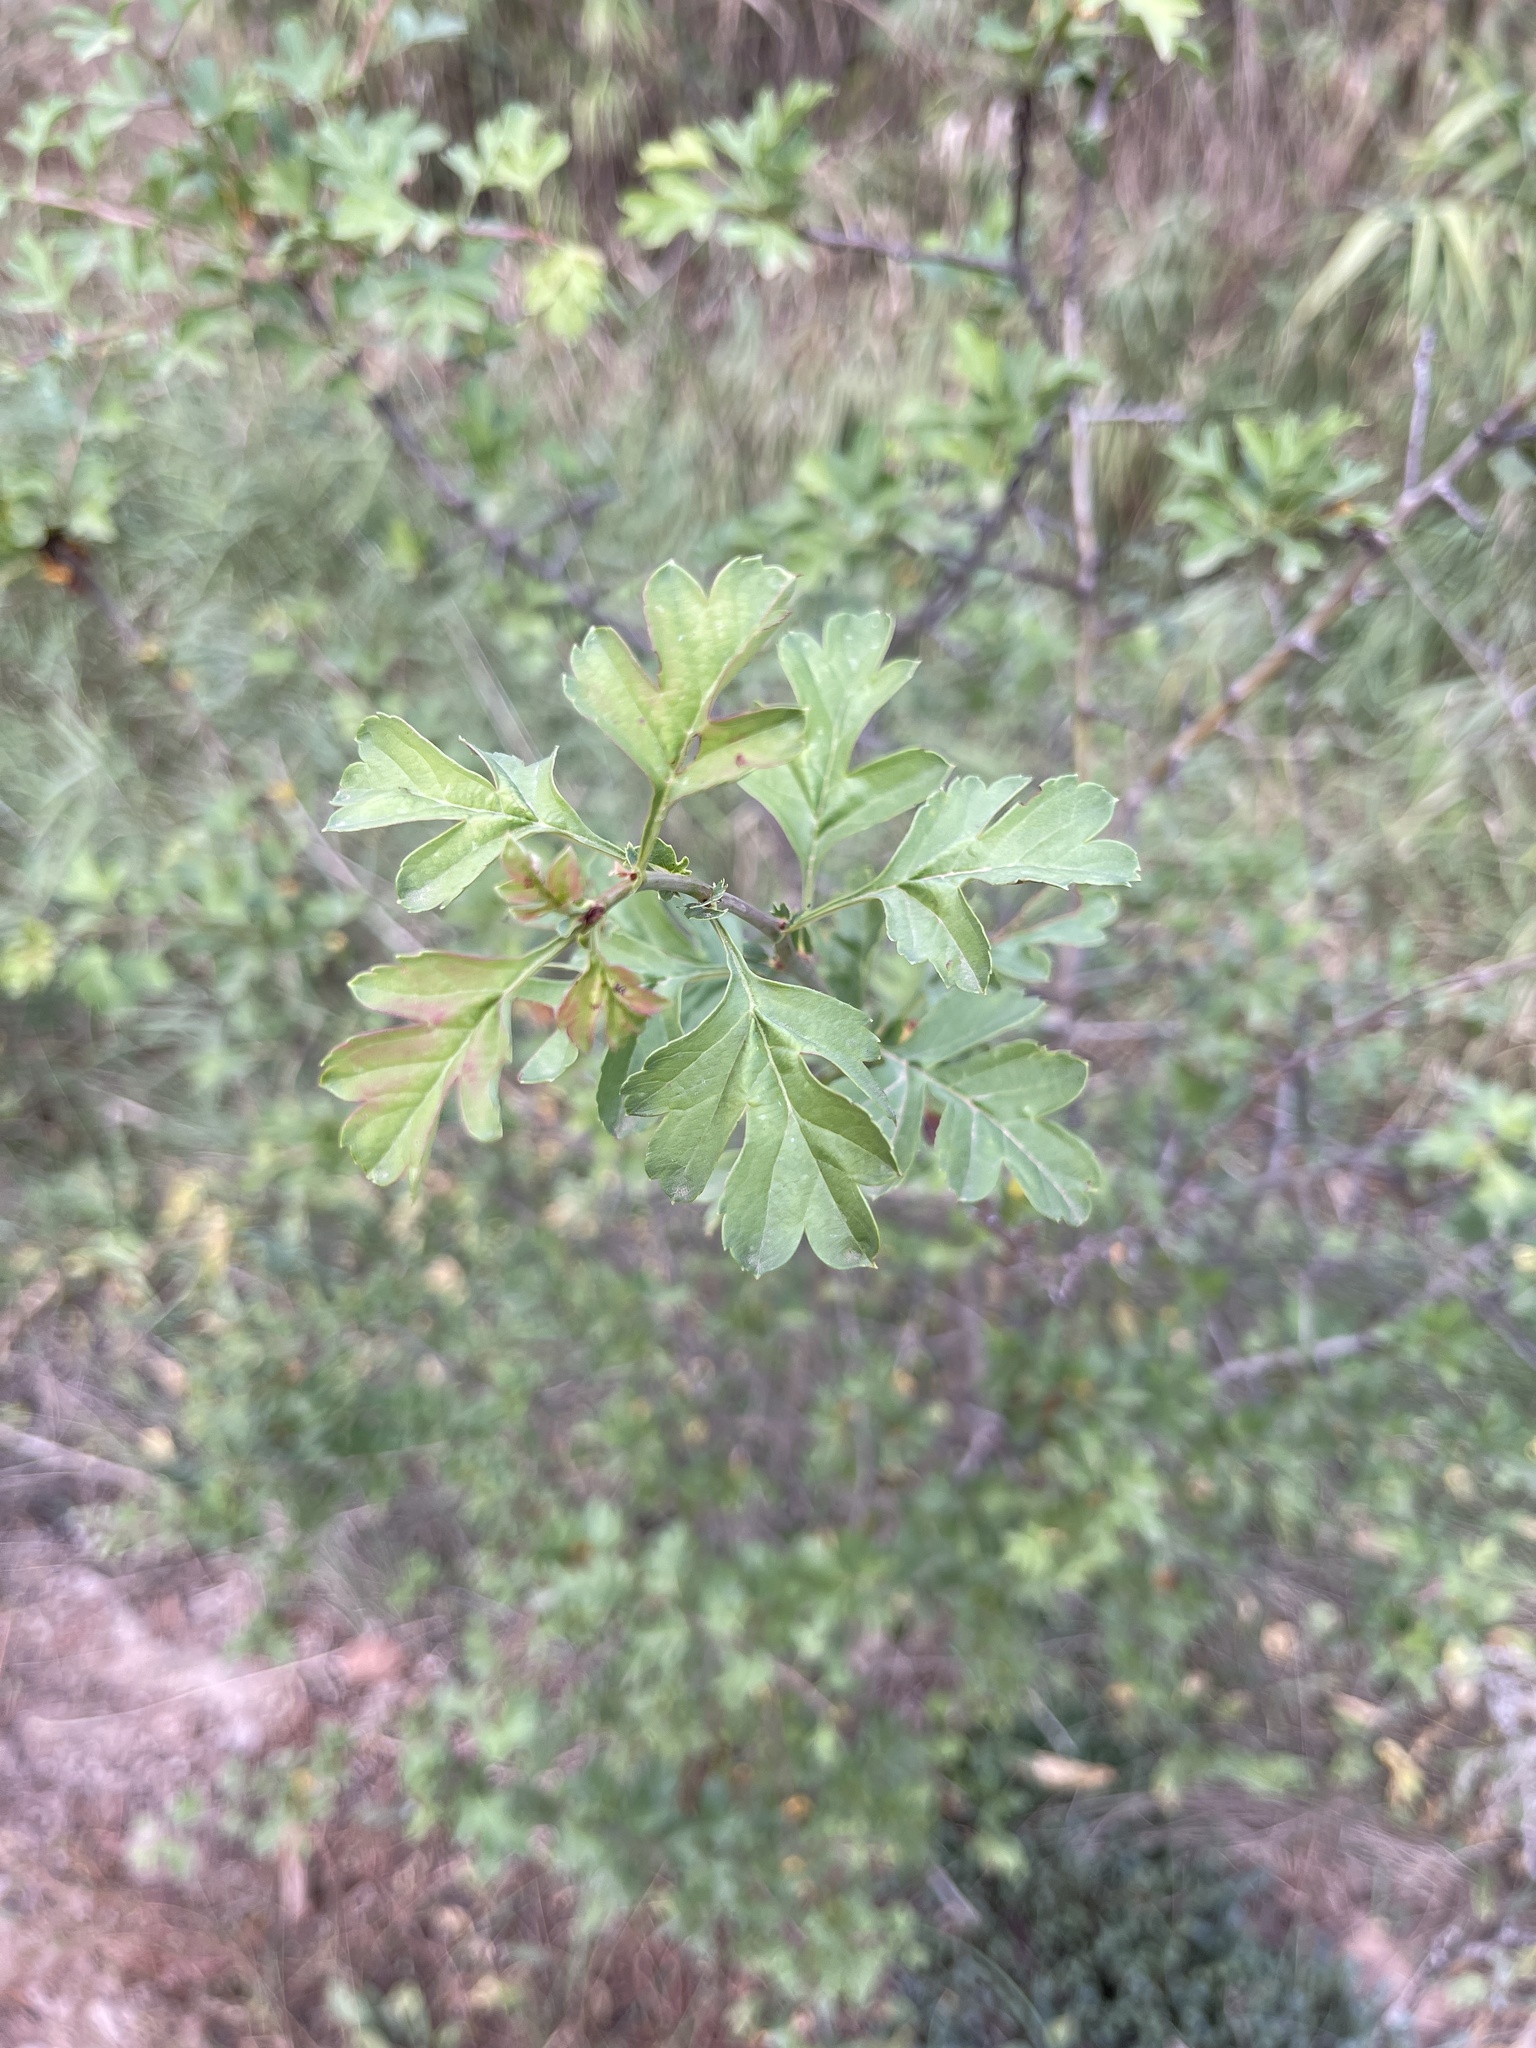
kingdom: Plantae
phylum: Tracheophyta
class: Magnoliopsida
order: Rosales
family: Rosaceae
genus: Crataegus
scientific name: Crataegus monogyna
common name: Hawthorn
